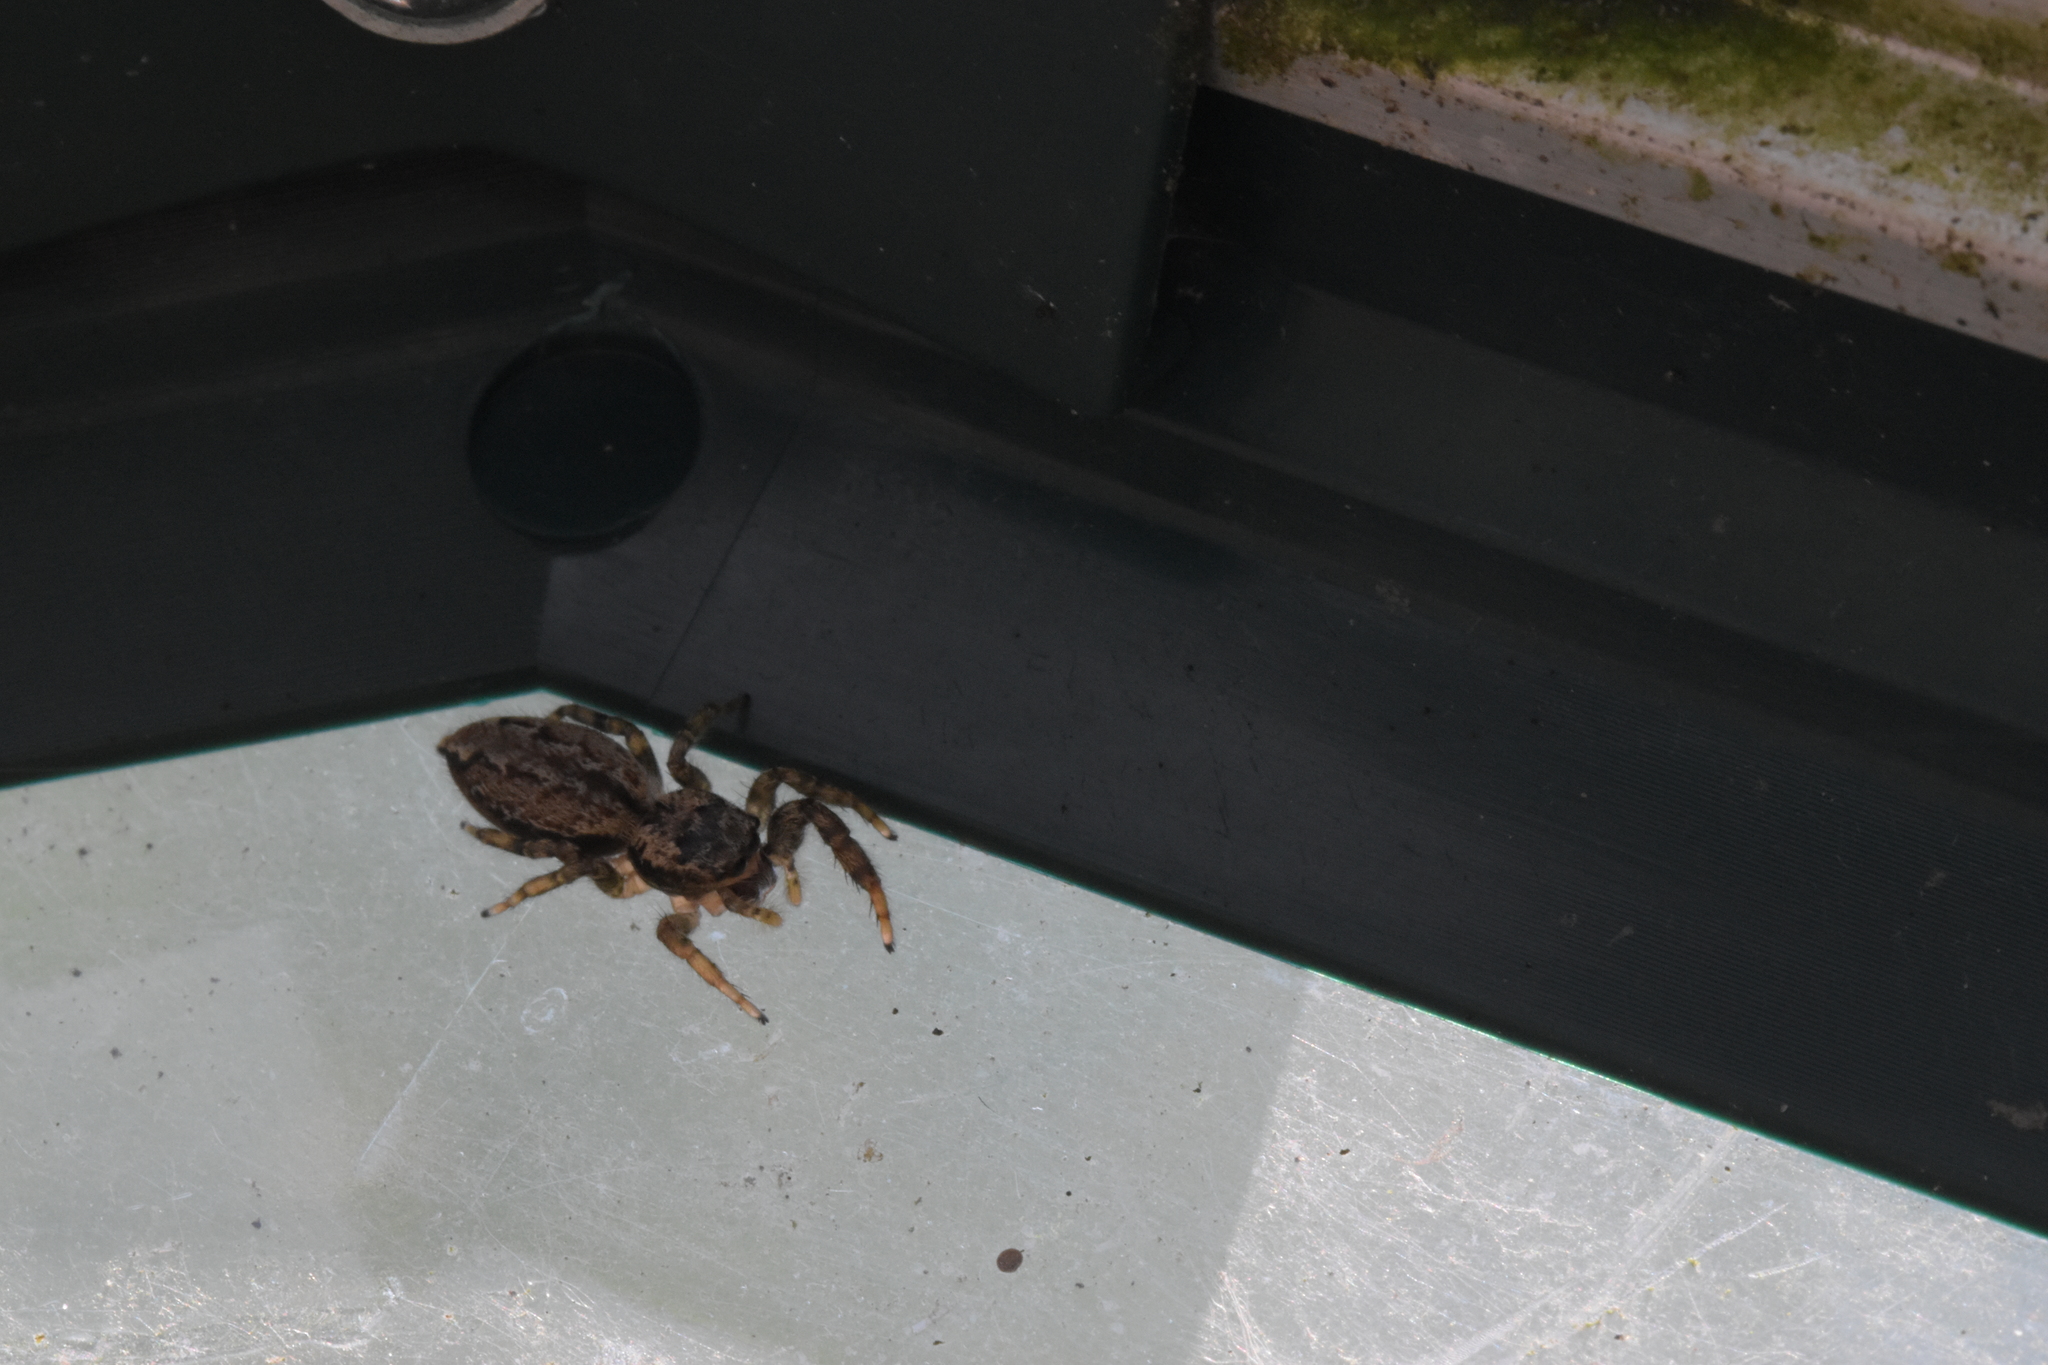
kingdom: Animalia
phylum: Arthropoda
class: Arachnida
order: Araneae
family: Salticidae
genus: Marpissa
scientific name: Marpissa muscosa
